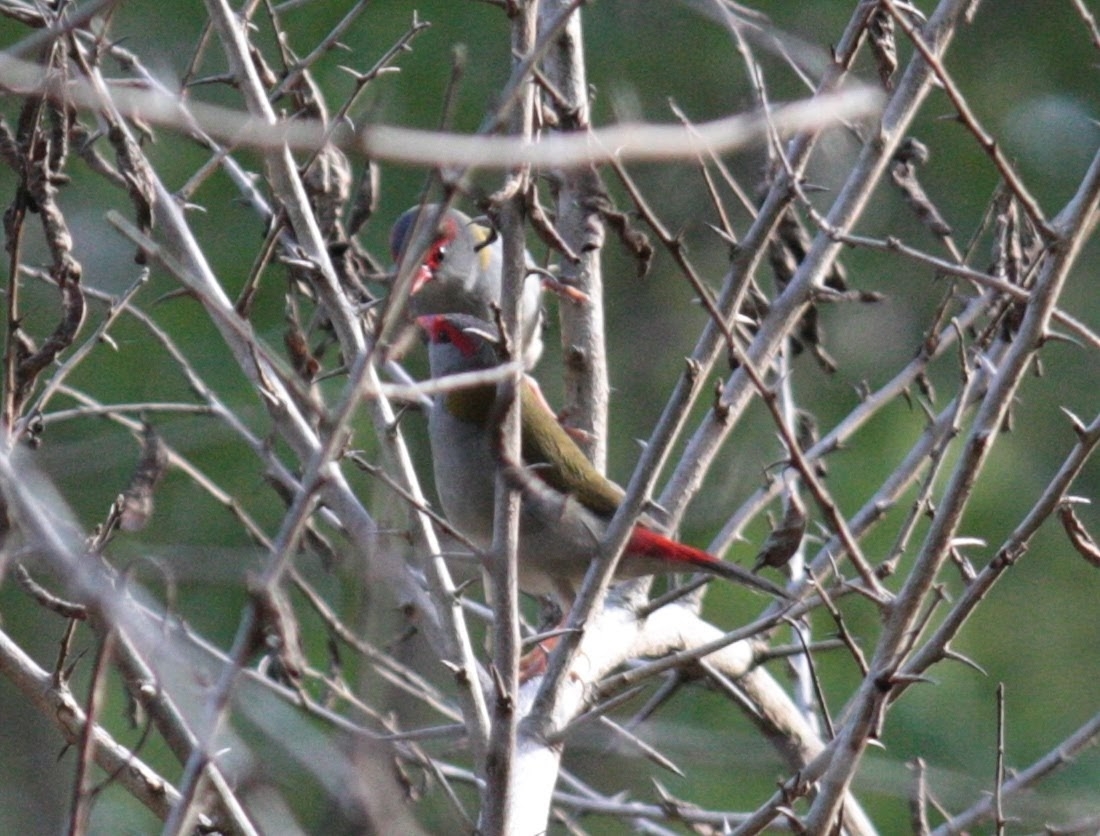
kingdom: Animalia
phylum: Chordata
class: Aves
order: Passeriformes
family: Estrildidae
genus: Neochmia
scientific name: Neochmia temporalis
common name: Red-browed finch
